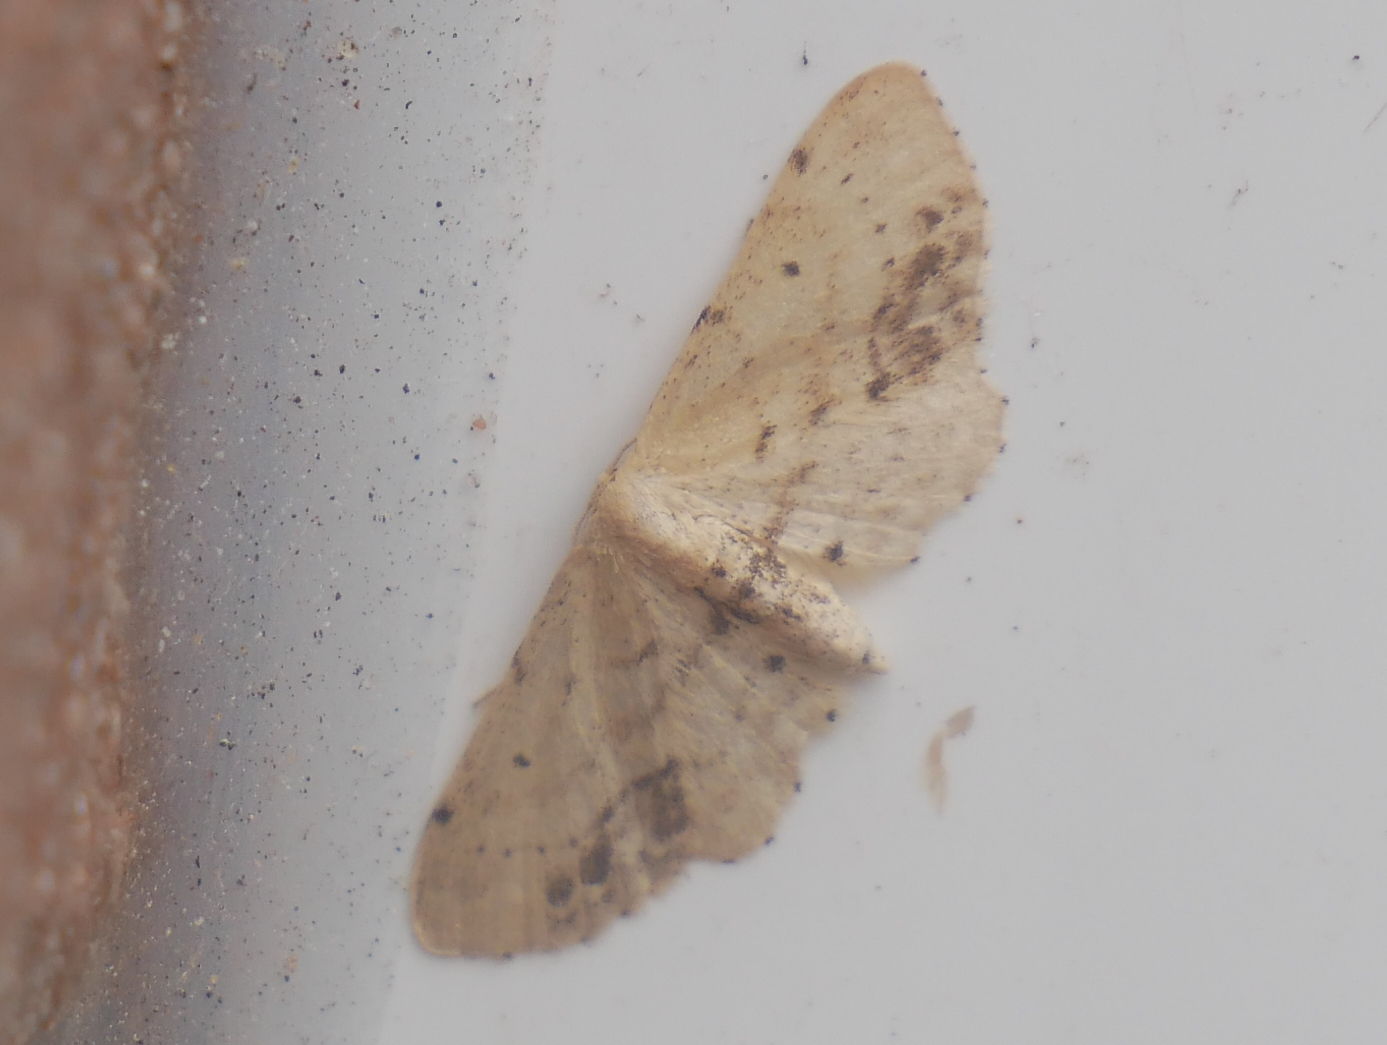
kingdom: Animalia
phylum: Arthropoda
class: Insecta
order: Lepidoptera
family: Geometridae
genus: Idaea
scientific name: Idaea dimidiata
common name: Single-dotted wave
